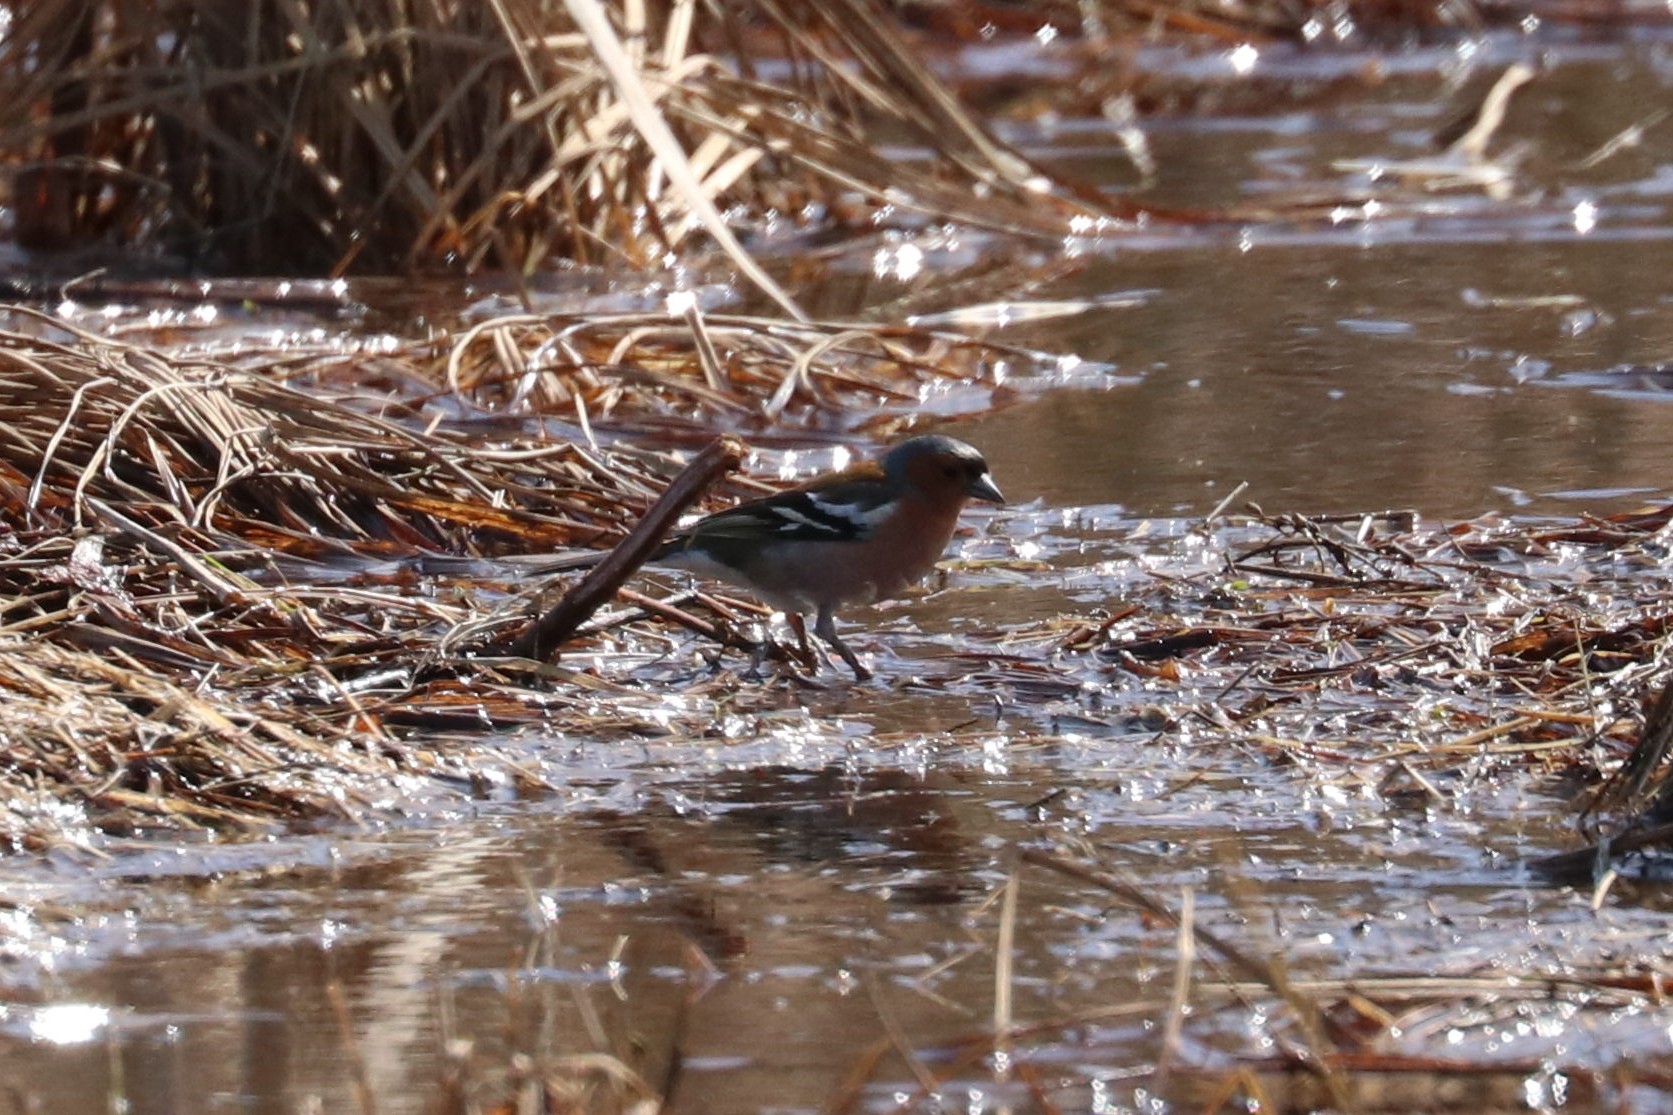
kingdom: Animalia
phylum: Chordata
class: Aves
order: Passeriformes
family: Fringillidae
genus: Fringilla
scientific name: Fringilla coelebs
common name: Common chaffinch
